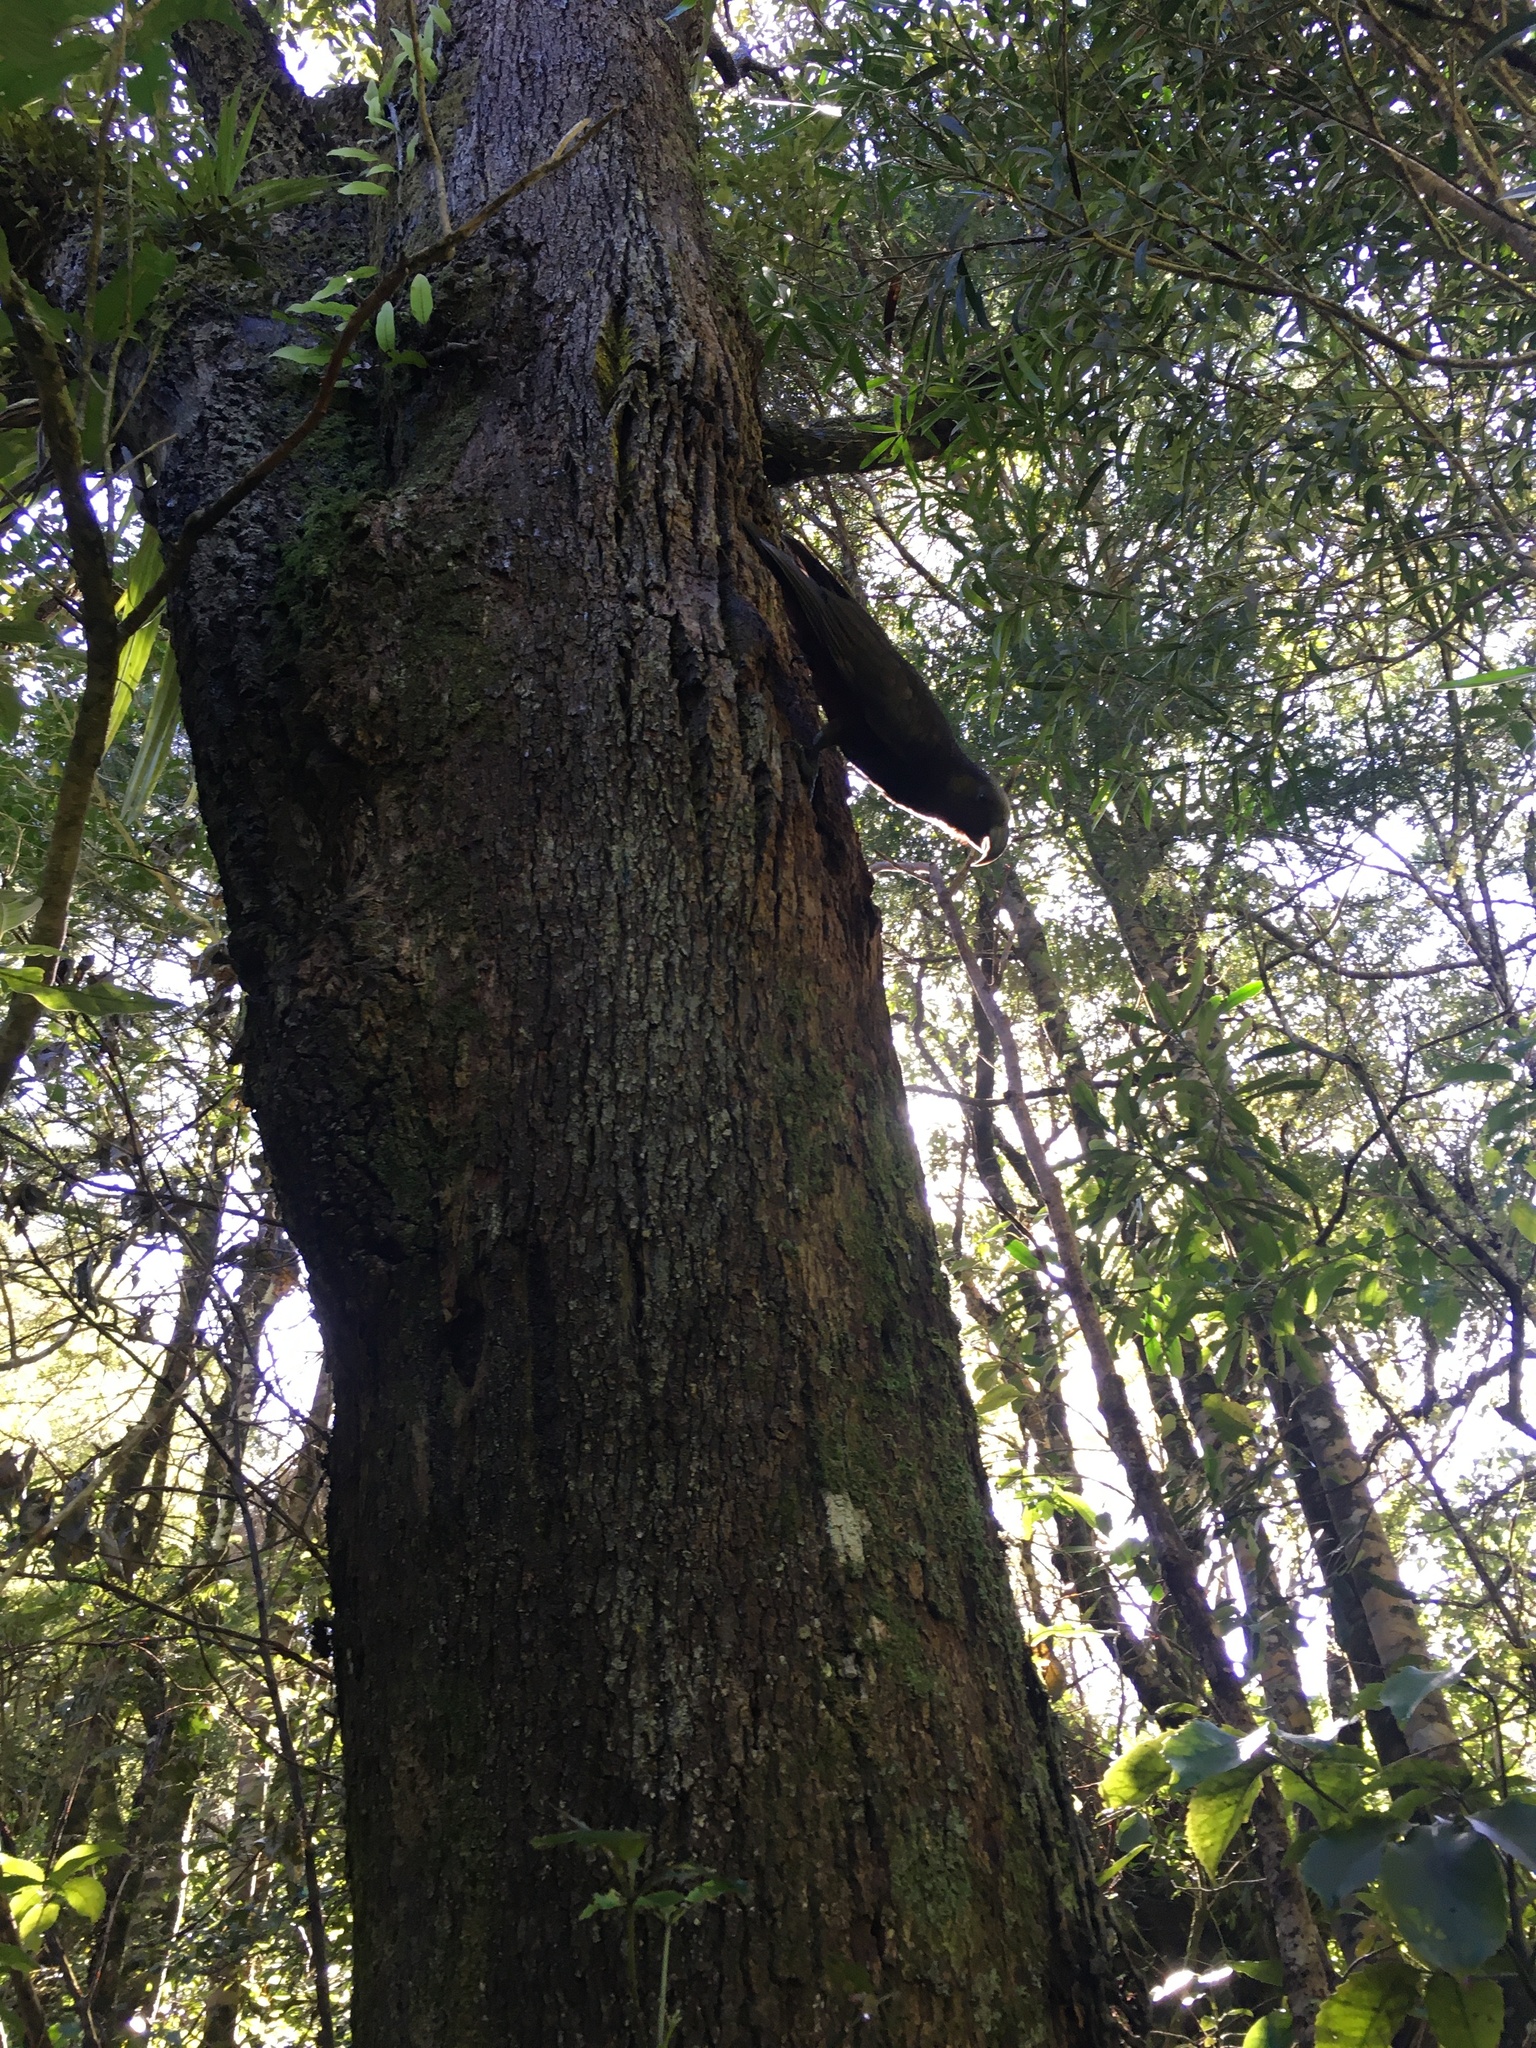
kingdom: Animalia
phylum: Chordata
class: Aves
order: Psittaciformes
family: Psittacidae
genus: Nestor
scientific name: Nestor meridionalis
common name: New zealand kaka
